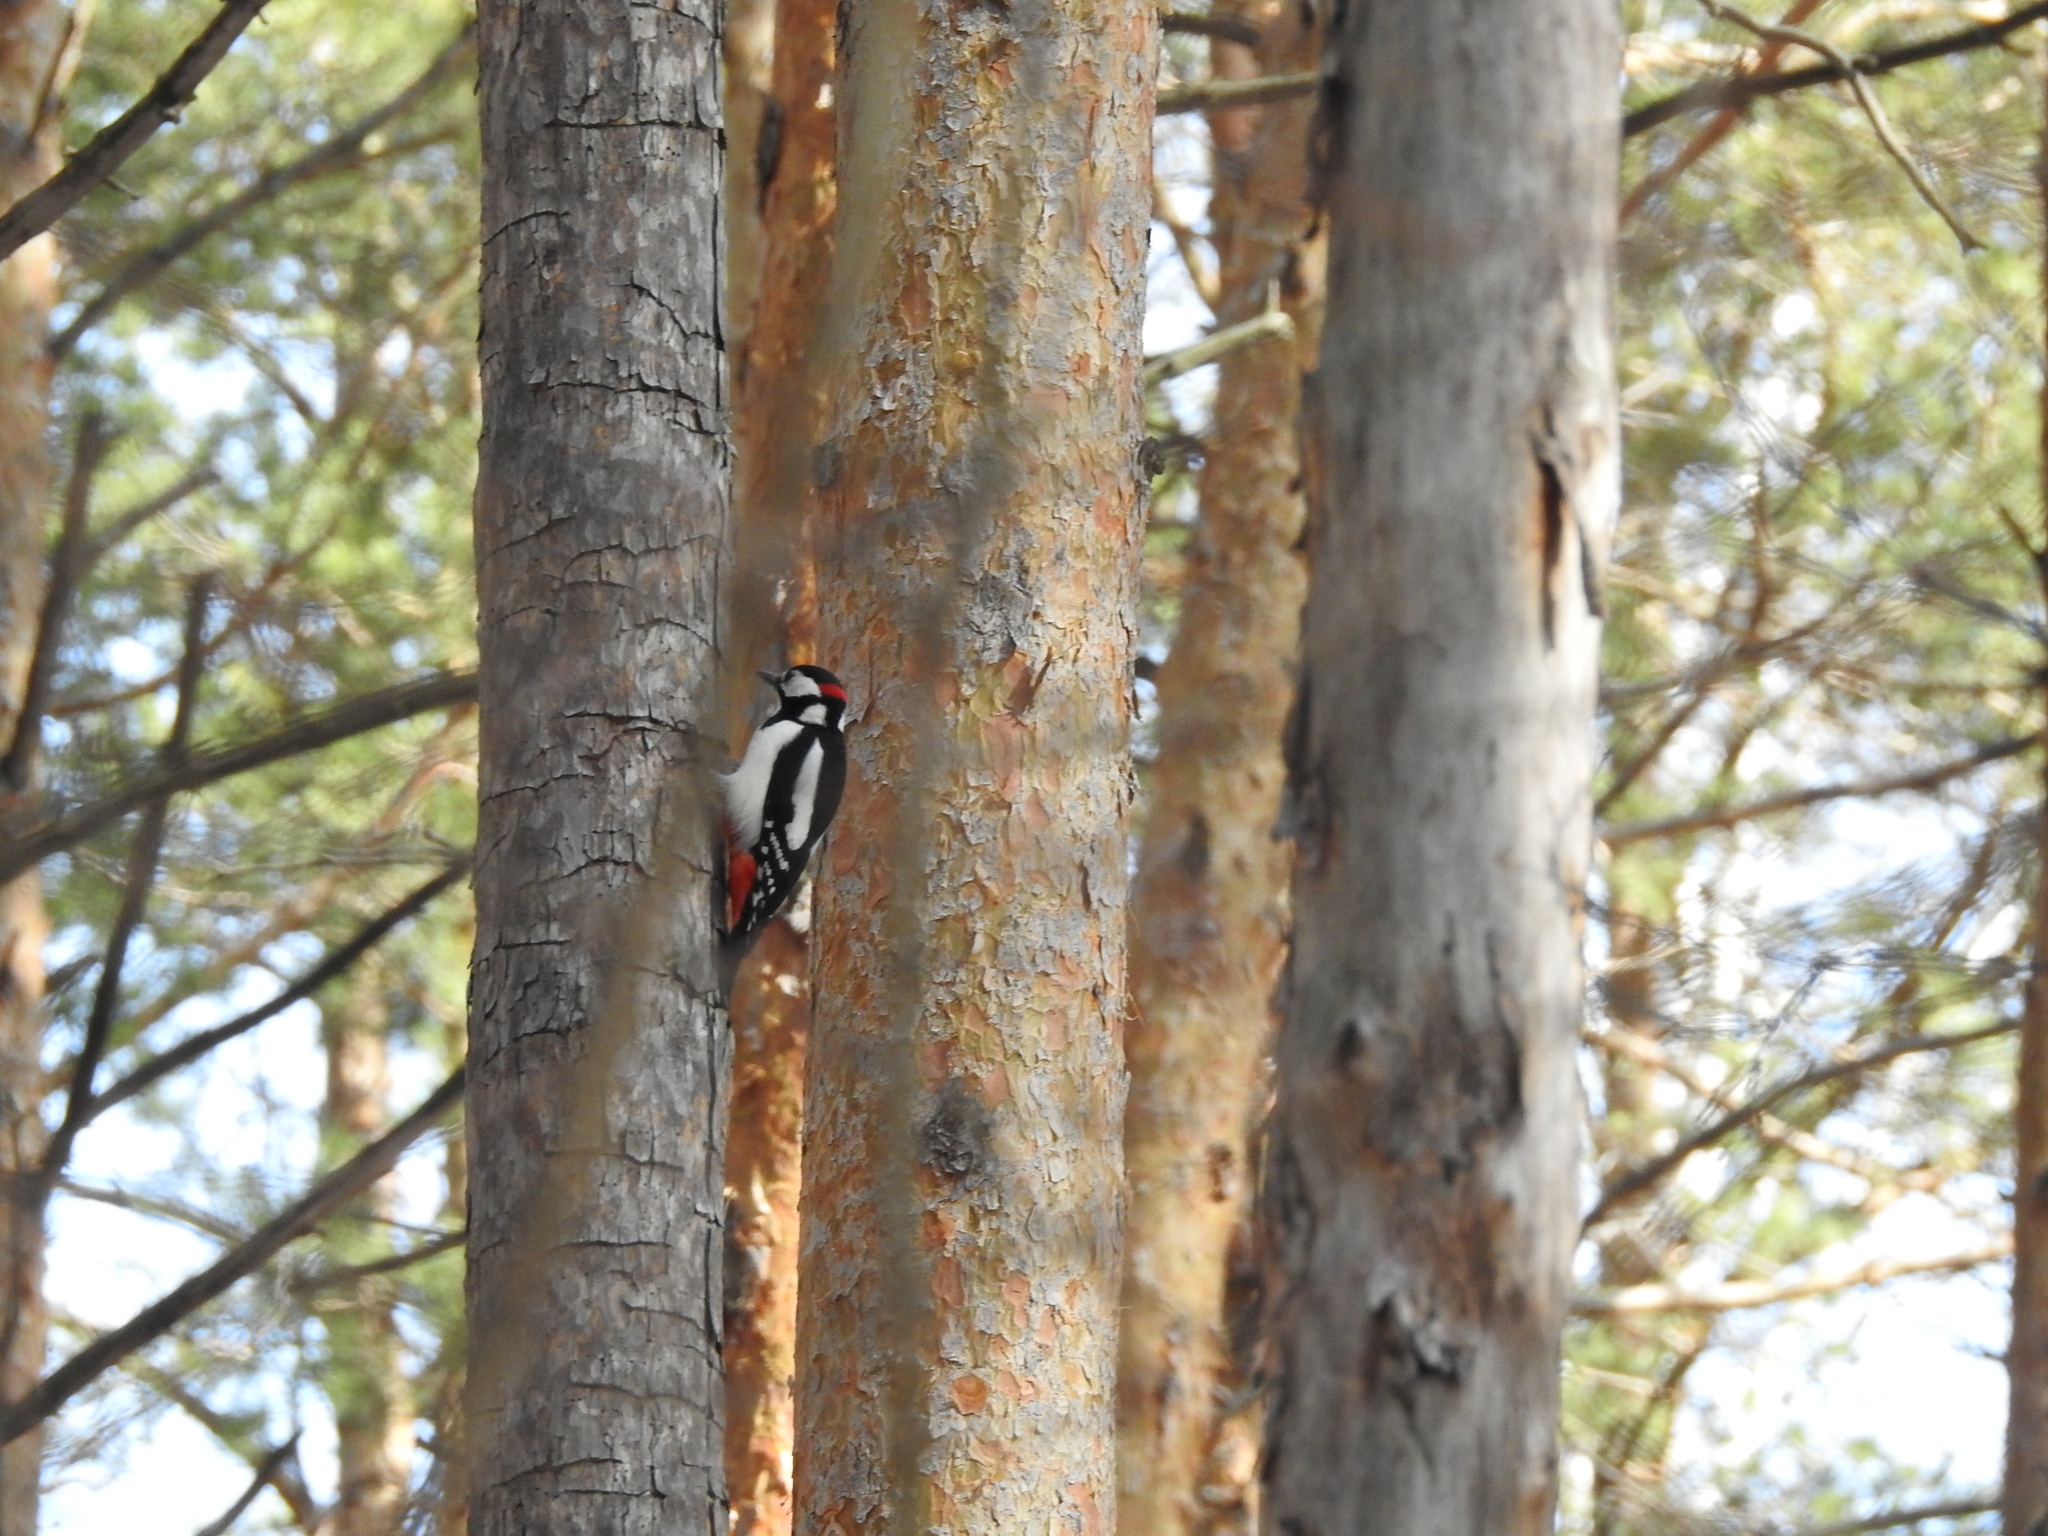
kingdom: Animalia
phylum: Chordata
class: Aves
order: Piciformes
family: Picidae
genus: Dendrocopos
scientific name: Dendrocopos major
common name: Great spotted woodpecker
